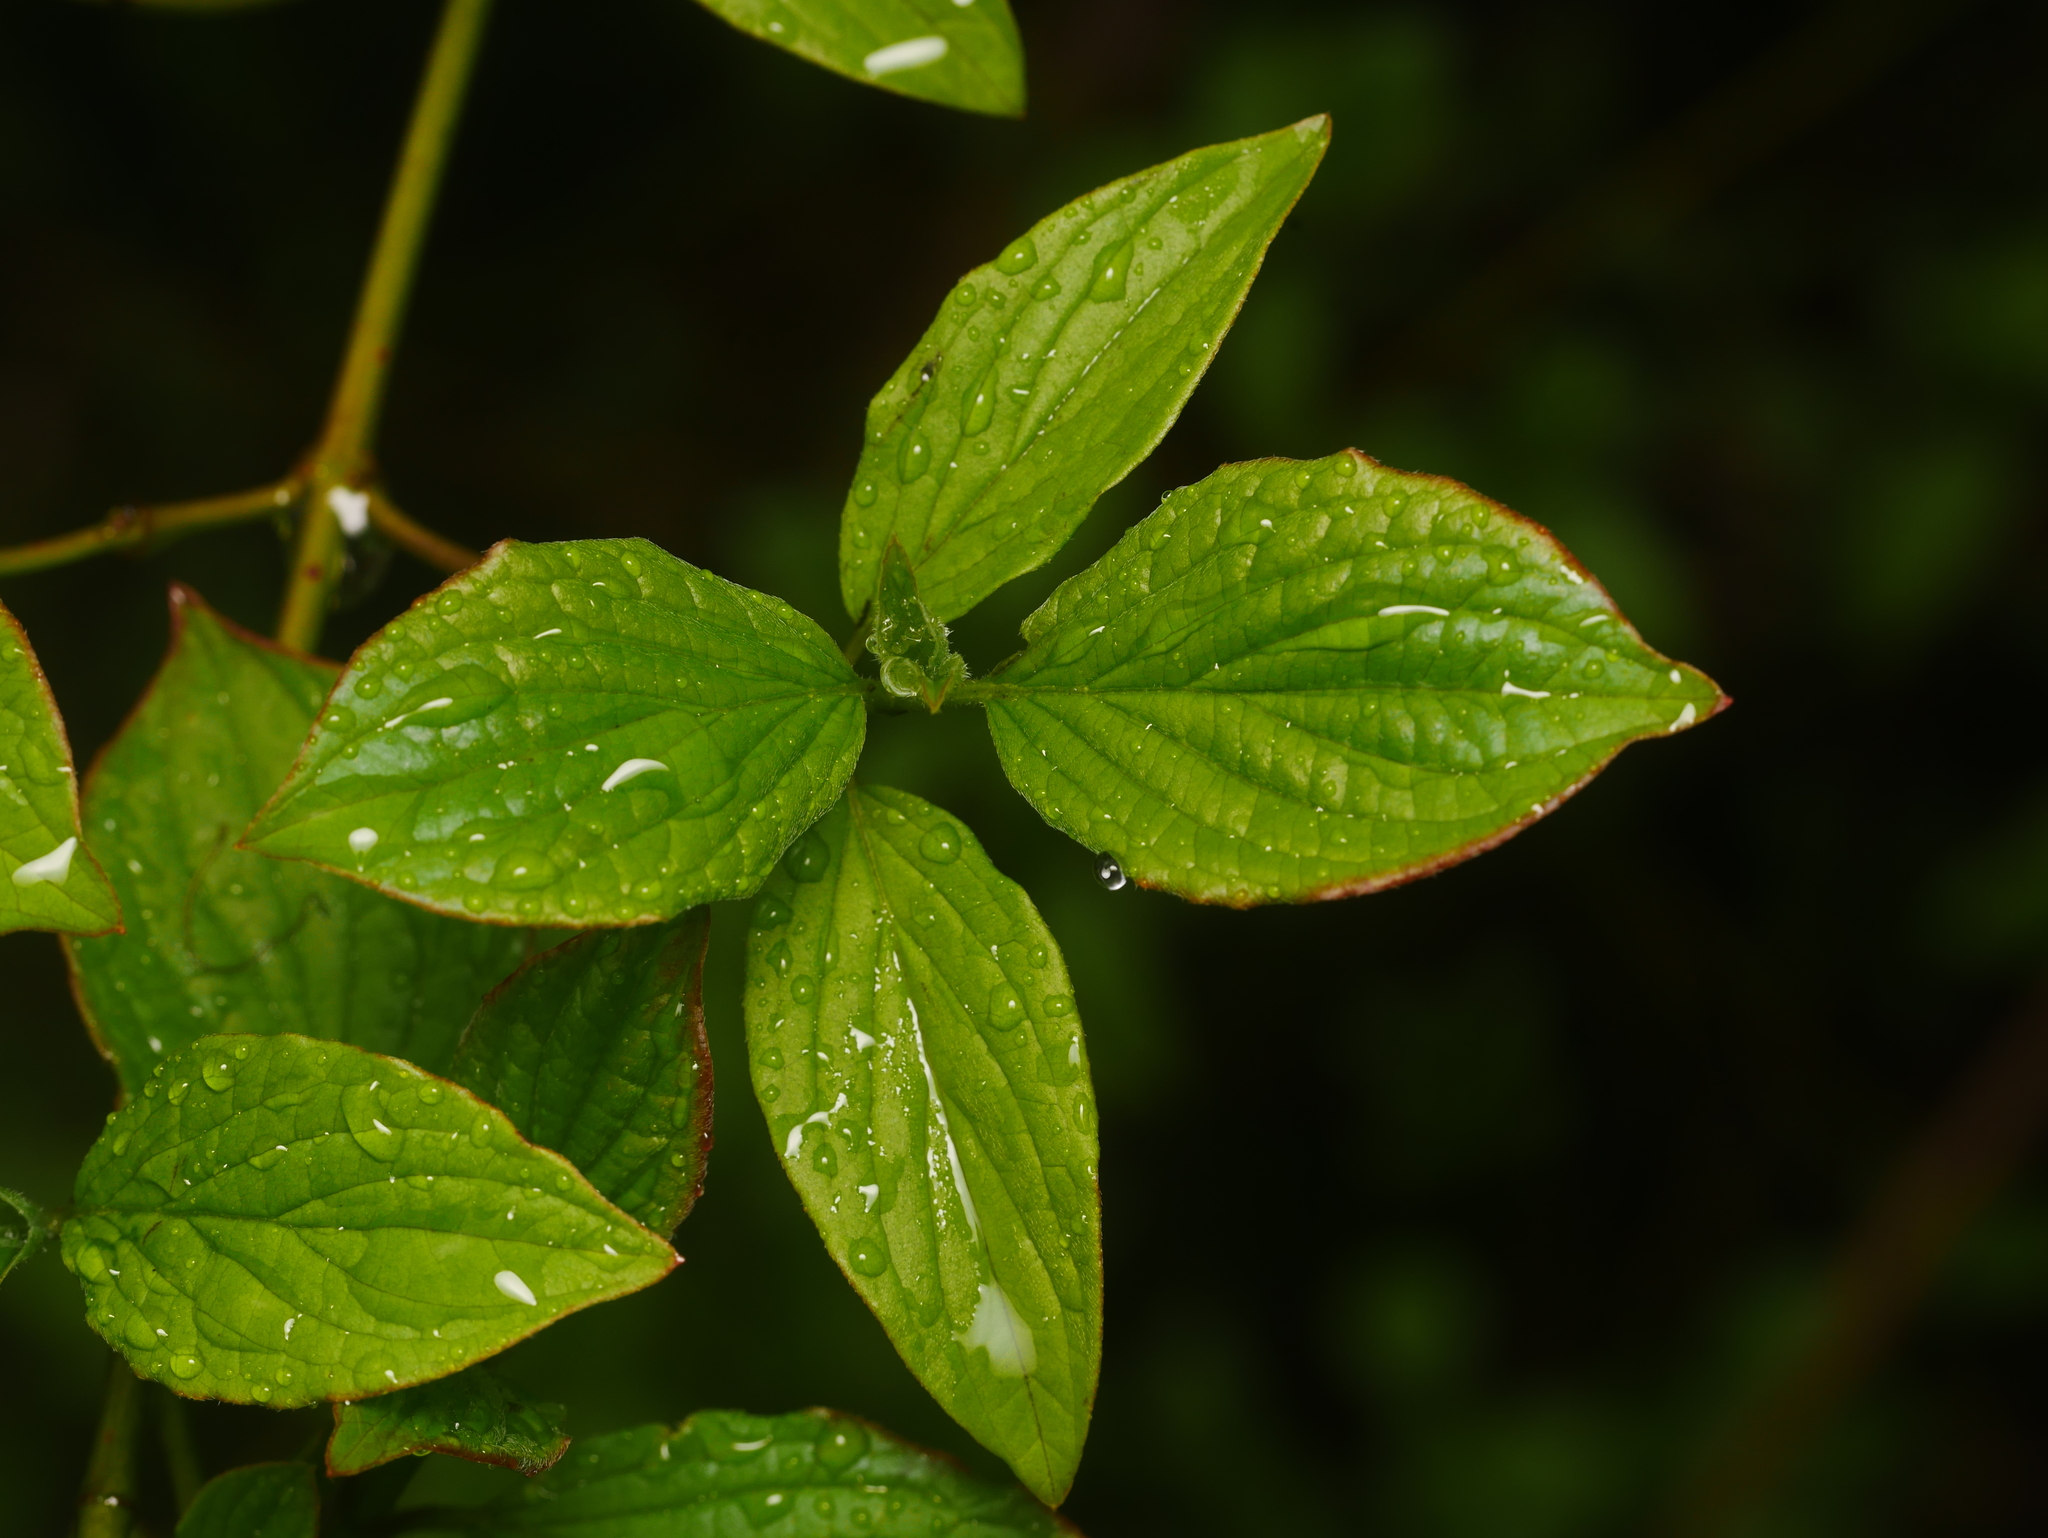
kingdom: Plantae
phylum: Tracheophyta
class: Magnoliopsida
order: Cornales
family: Cornaceae
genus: Cornus
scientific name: Cornus sanguinea
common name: Dogwood
